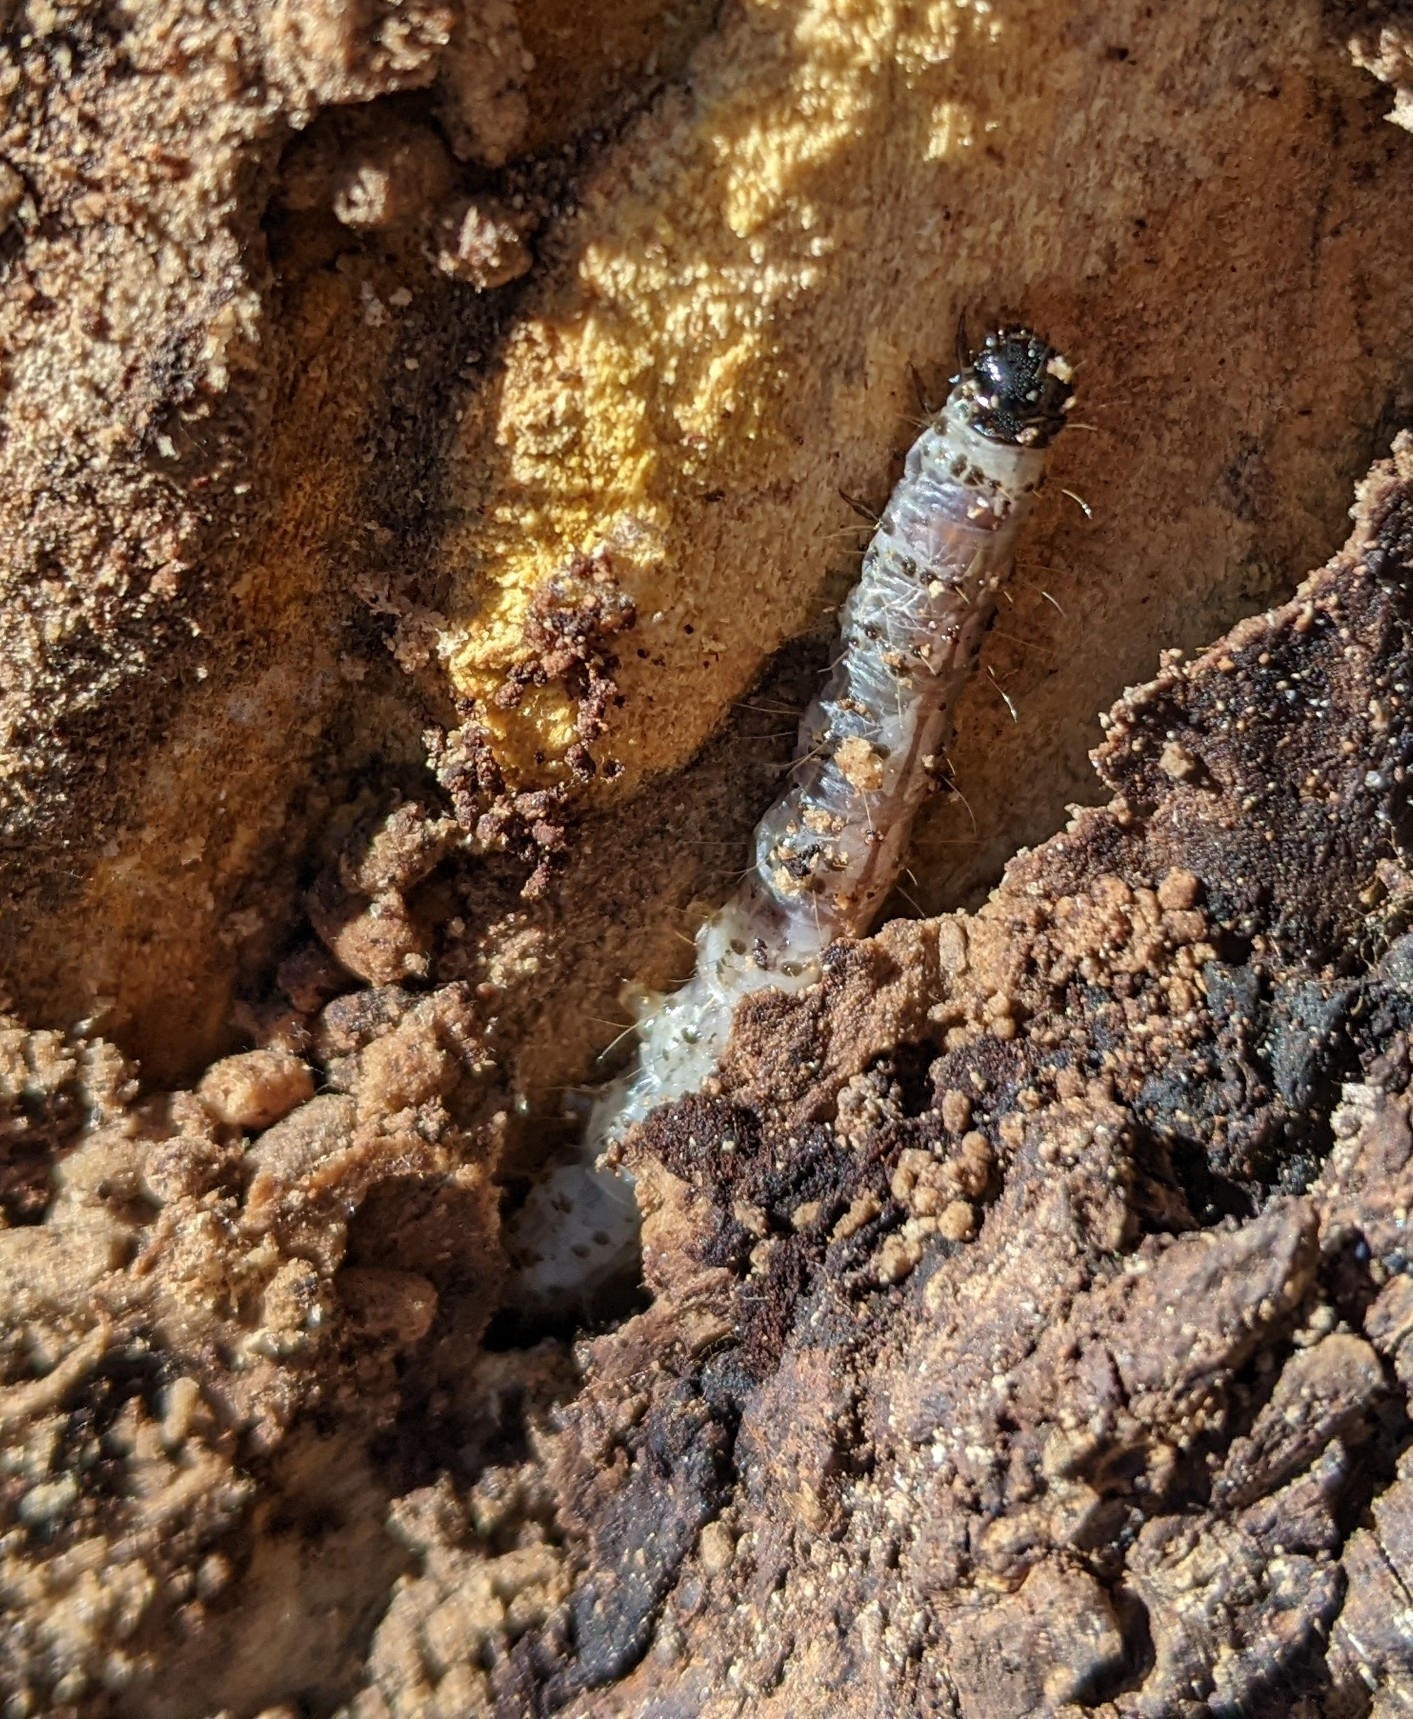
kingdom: Animalia
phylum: Arthropoda
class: Insecta
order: Lepidoptera
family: Erebidae
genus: Scolecocampa
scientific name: Scolecocampa liburna
